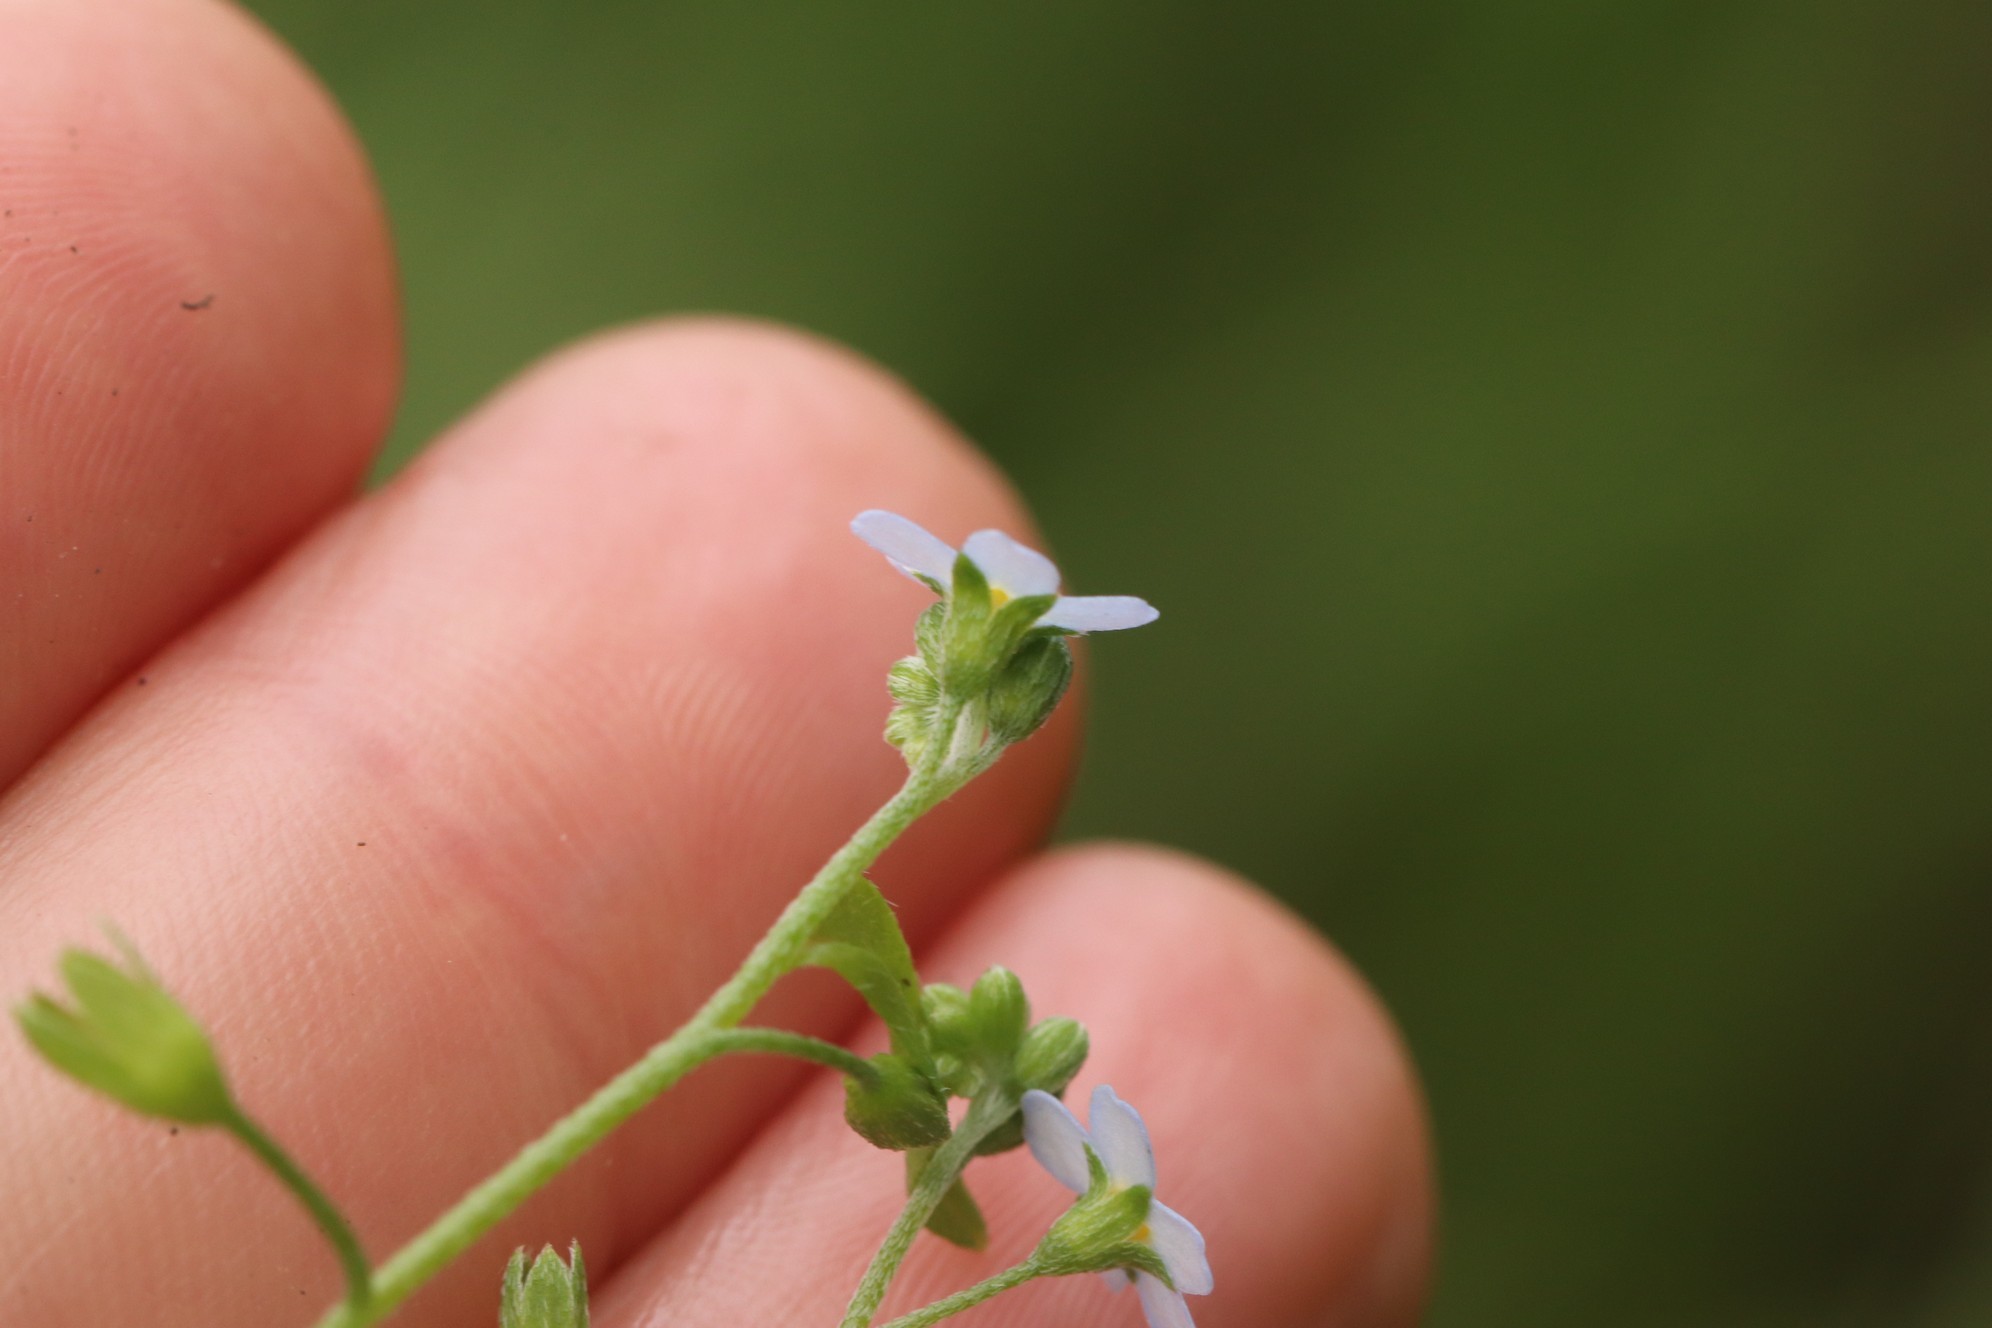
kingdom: Plantae
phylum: Tracheophyta
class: Magnoliopsida
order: Boraginales
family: Boraginaceae
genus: Myosotis
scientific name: Myosotis scorpioides
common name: Water forget-me-not
